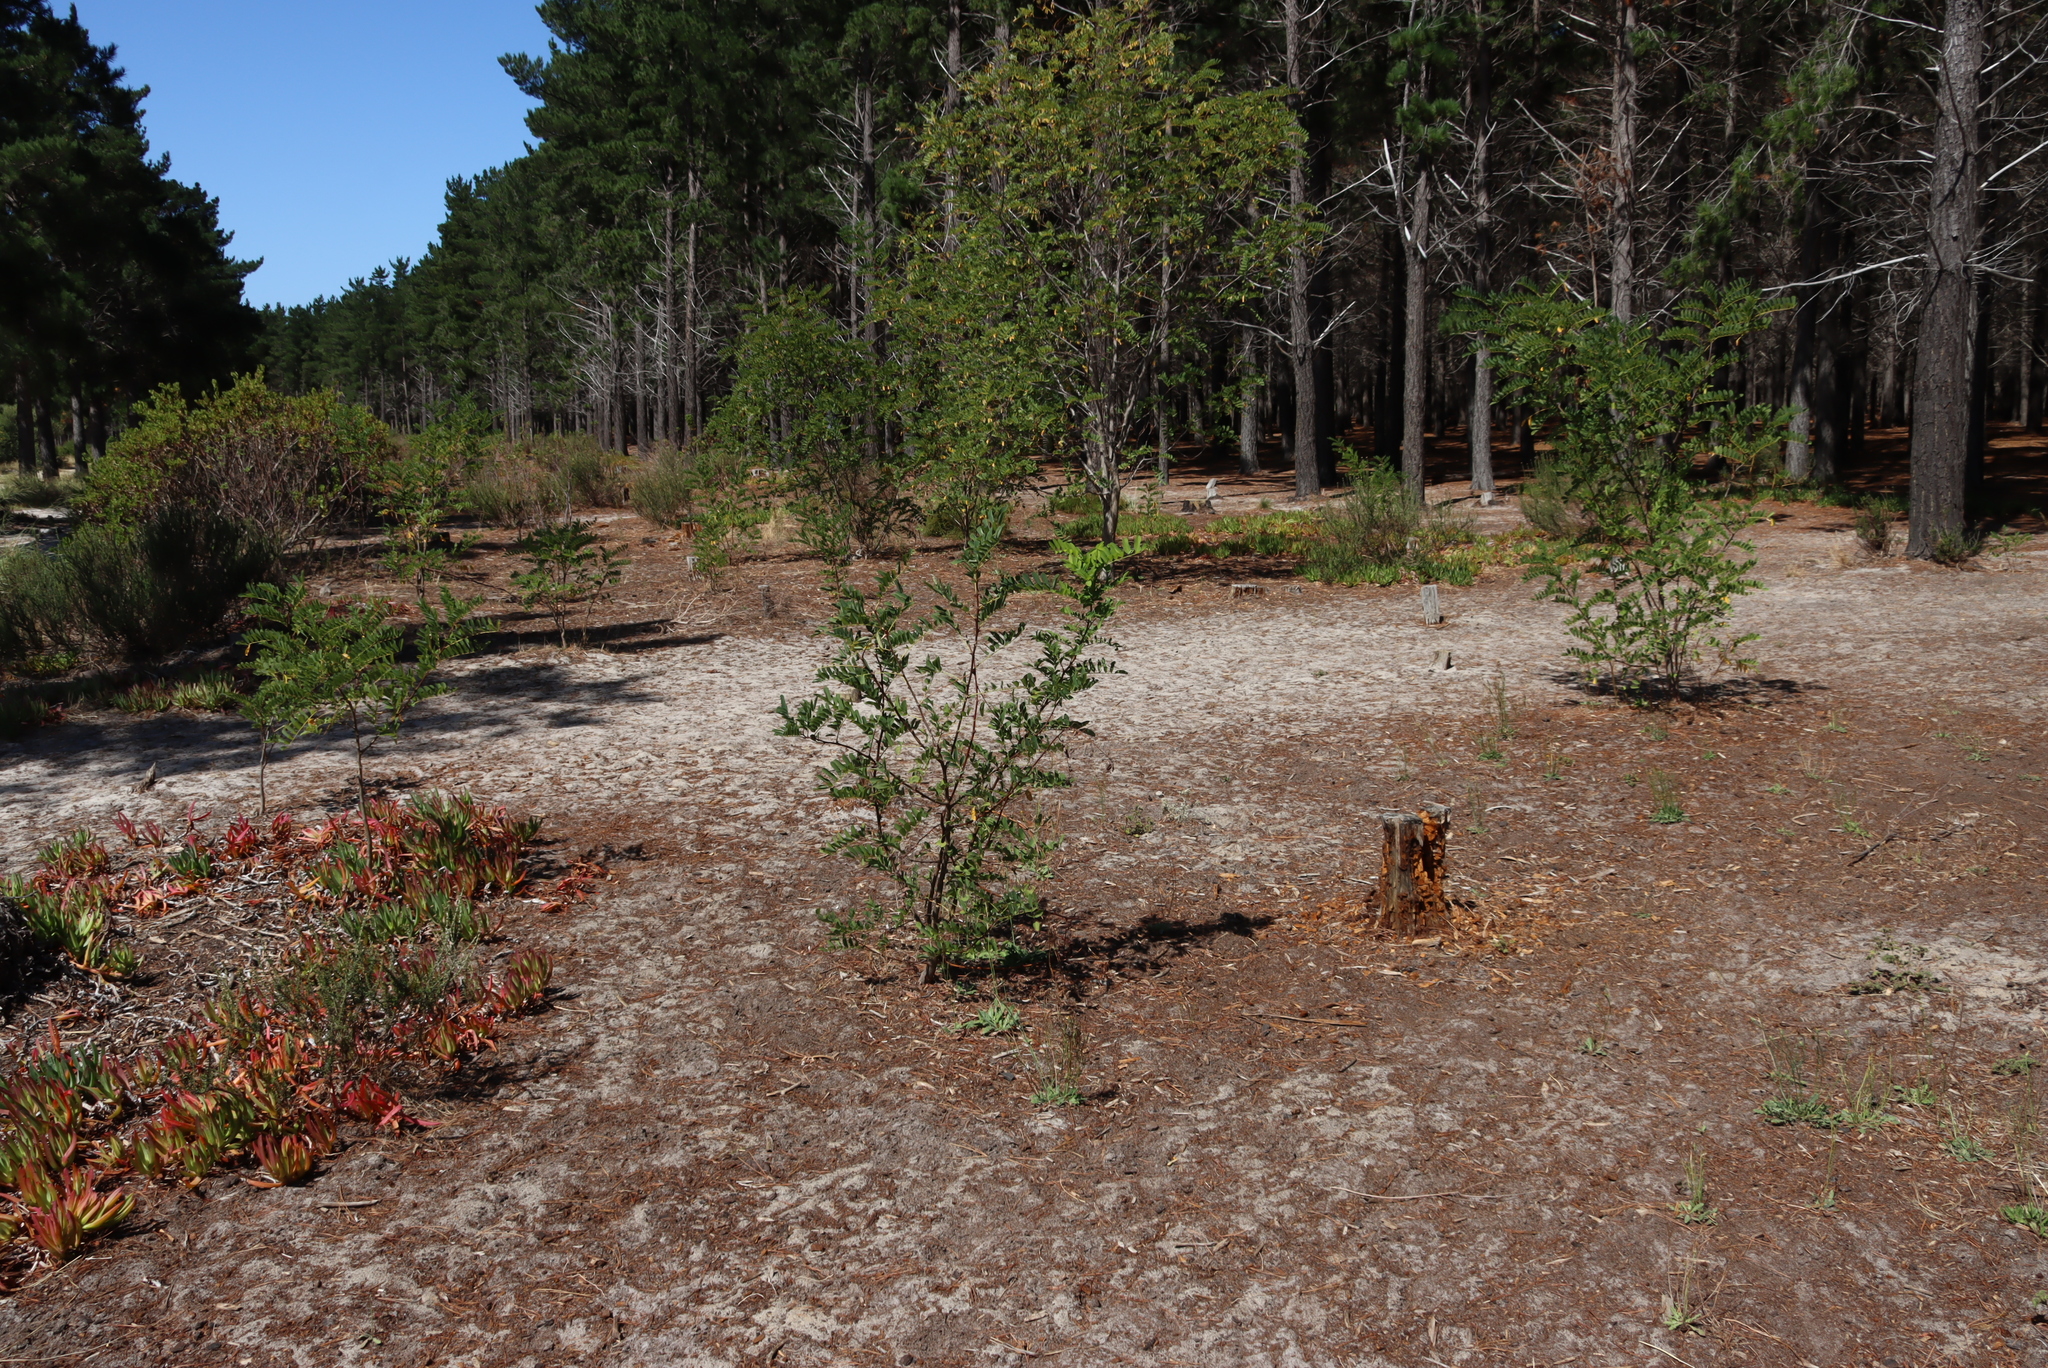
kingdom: Plantae
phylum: Tracheophyta
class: Magnoliopsida
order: Fabales
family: Fabaceae
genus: Robinia
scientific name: Robinia pseudoacacia
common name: Black locust
